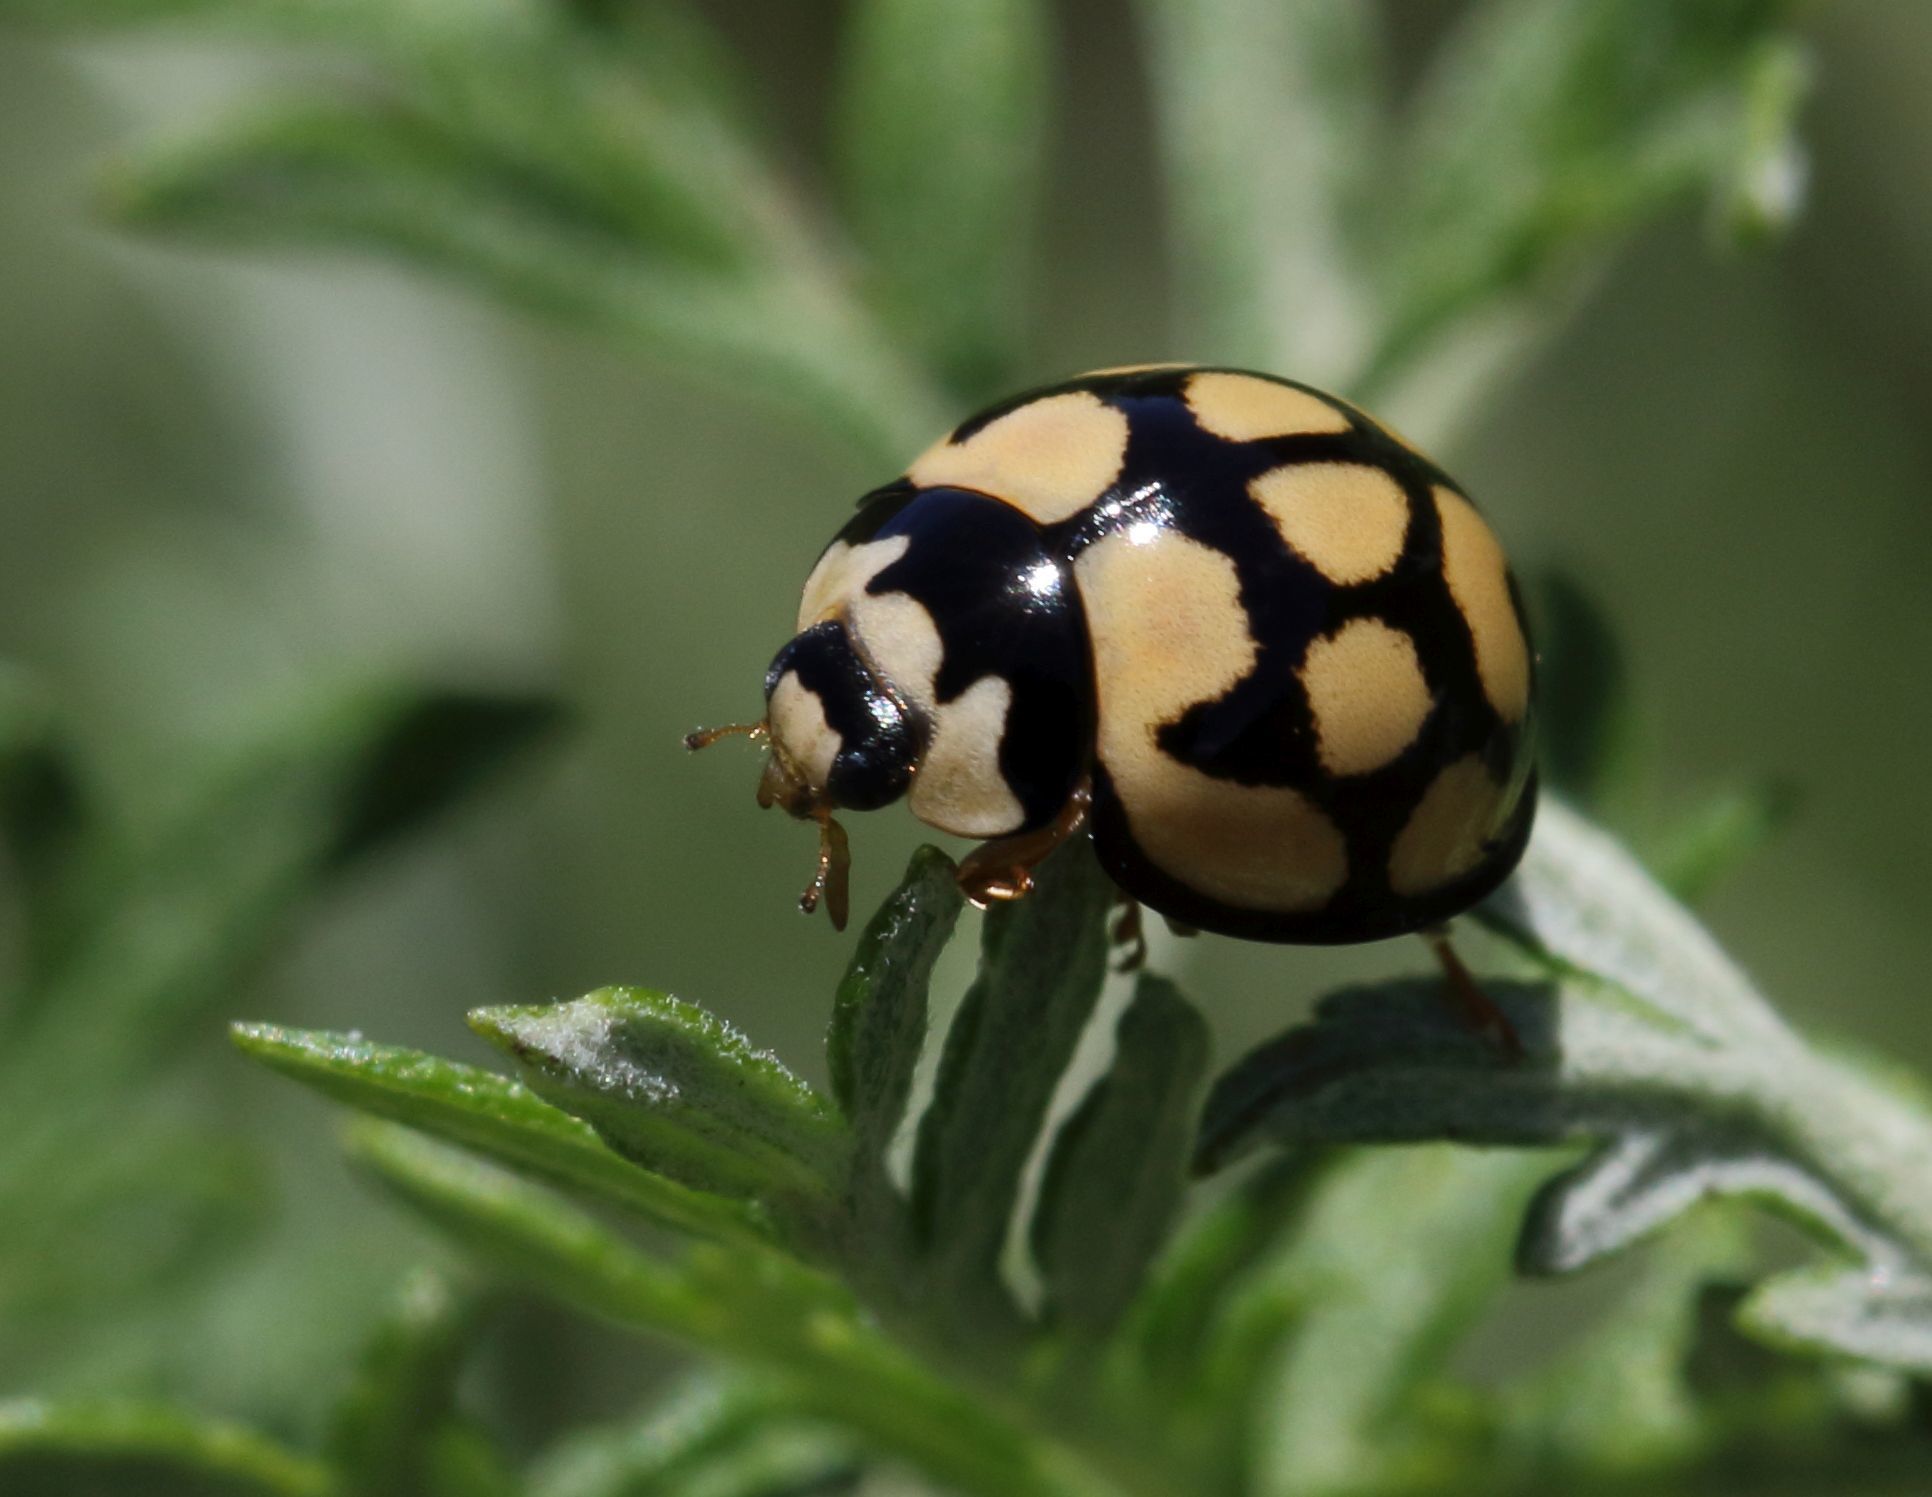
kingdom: Animalia
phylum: Arthropoda
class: Insecta
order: Coleoptera
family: Coccinellidae
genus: Cheilomenes
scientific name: Cheilomenes lunata
